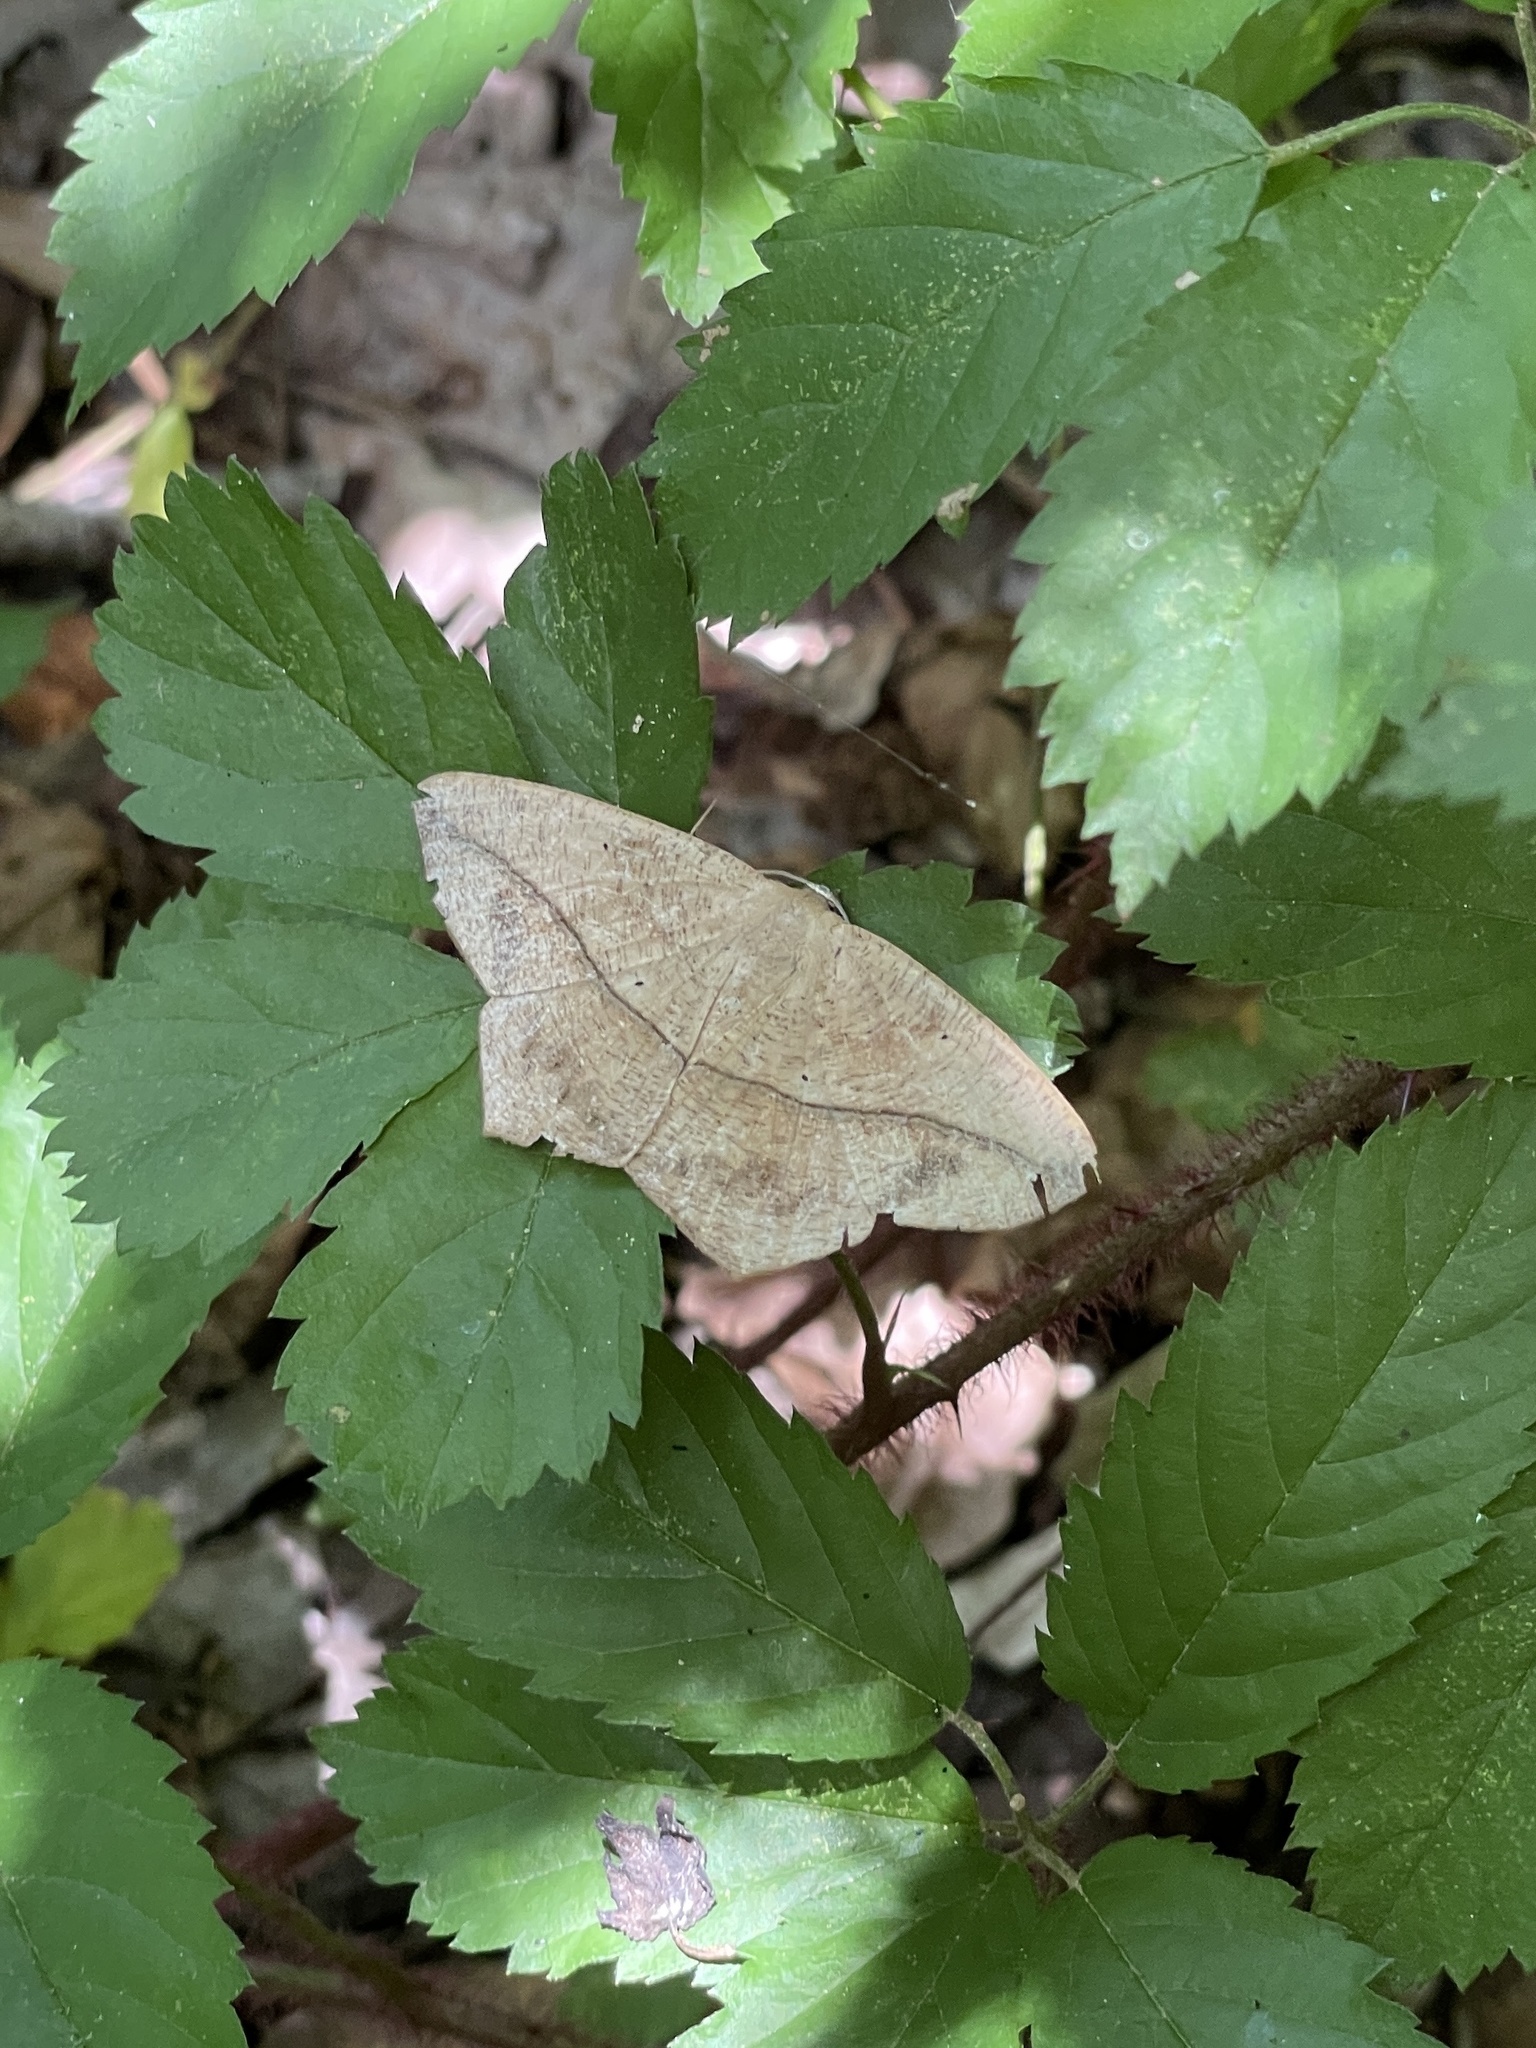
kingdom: Animalia
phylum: Arthropoda
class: Insecta
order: Lepidoptera
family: Geometridae
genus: Prochoerodes
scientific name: Prochoerodes lineola
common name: Large maple spanworm
